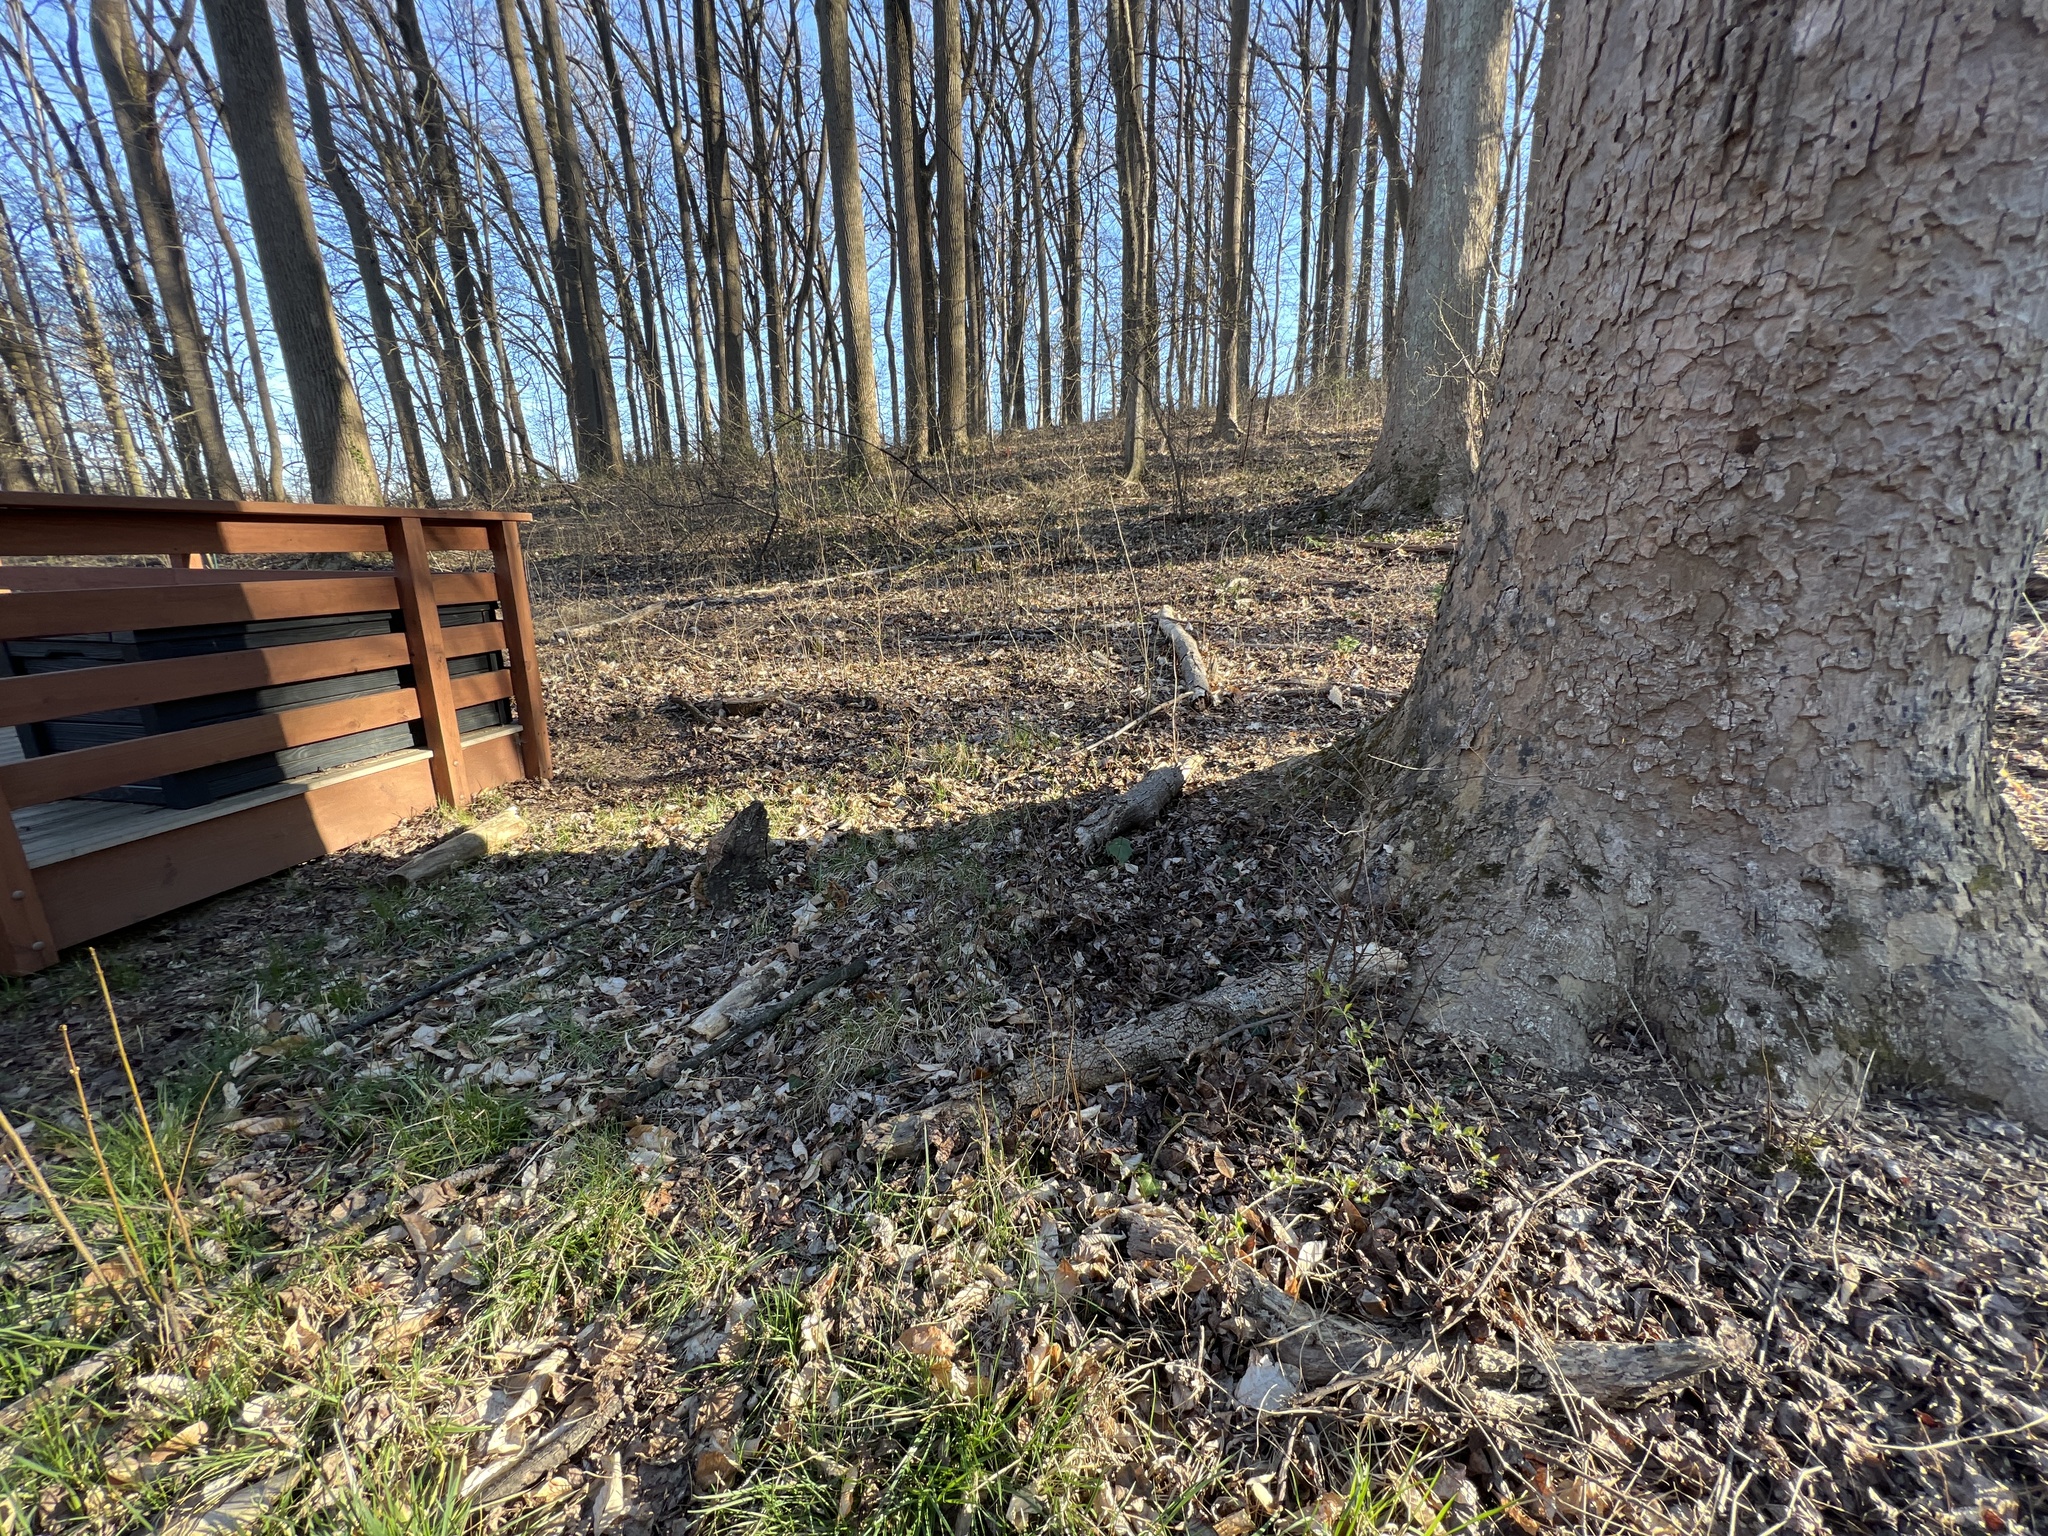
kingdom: Plantae
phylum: Tracheophyta
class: Magnoliopsida
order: Ranunculales
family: Berberidaceae
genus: Mahonia
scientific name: Mahonia bealei
